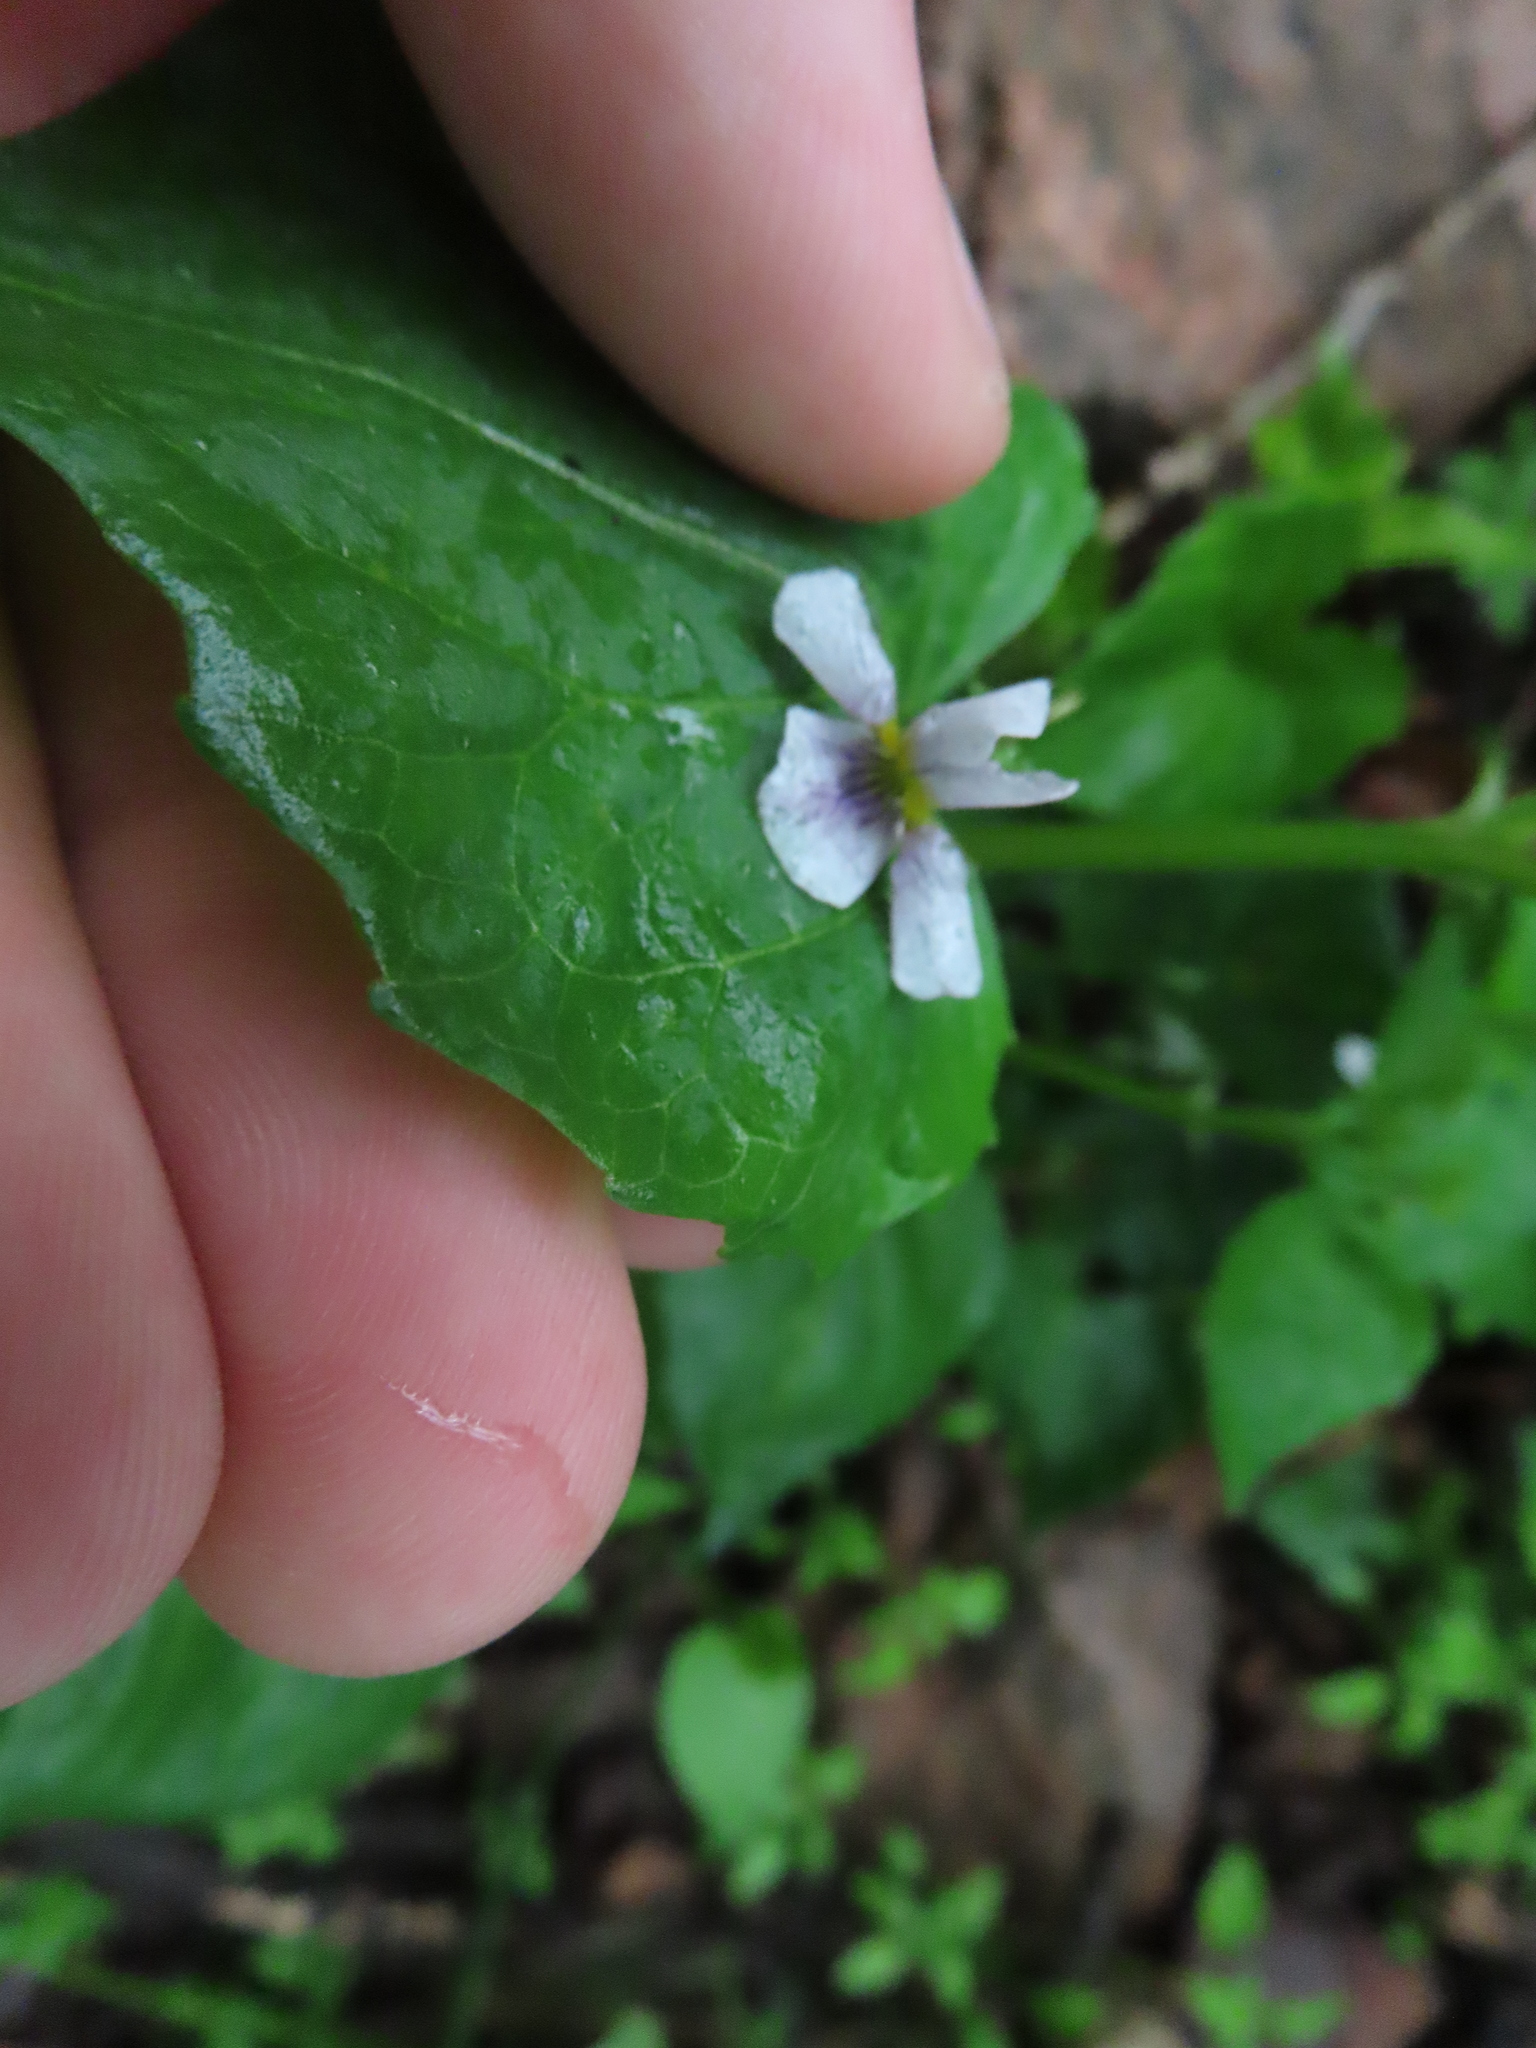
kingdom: Plantae
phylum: Tracheophyta
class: Magnoliopsida
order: Malpighiales
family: Violaceae
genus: Viola
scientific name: Viola canadensis
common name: Canada violet
